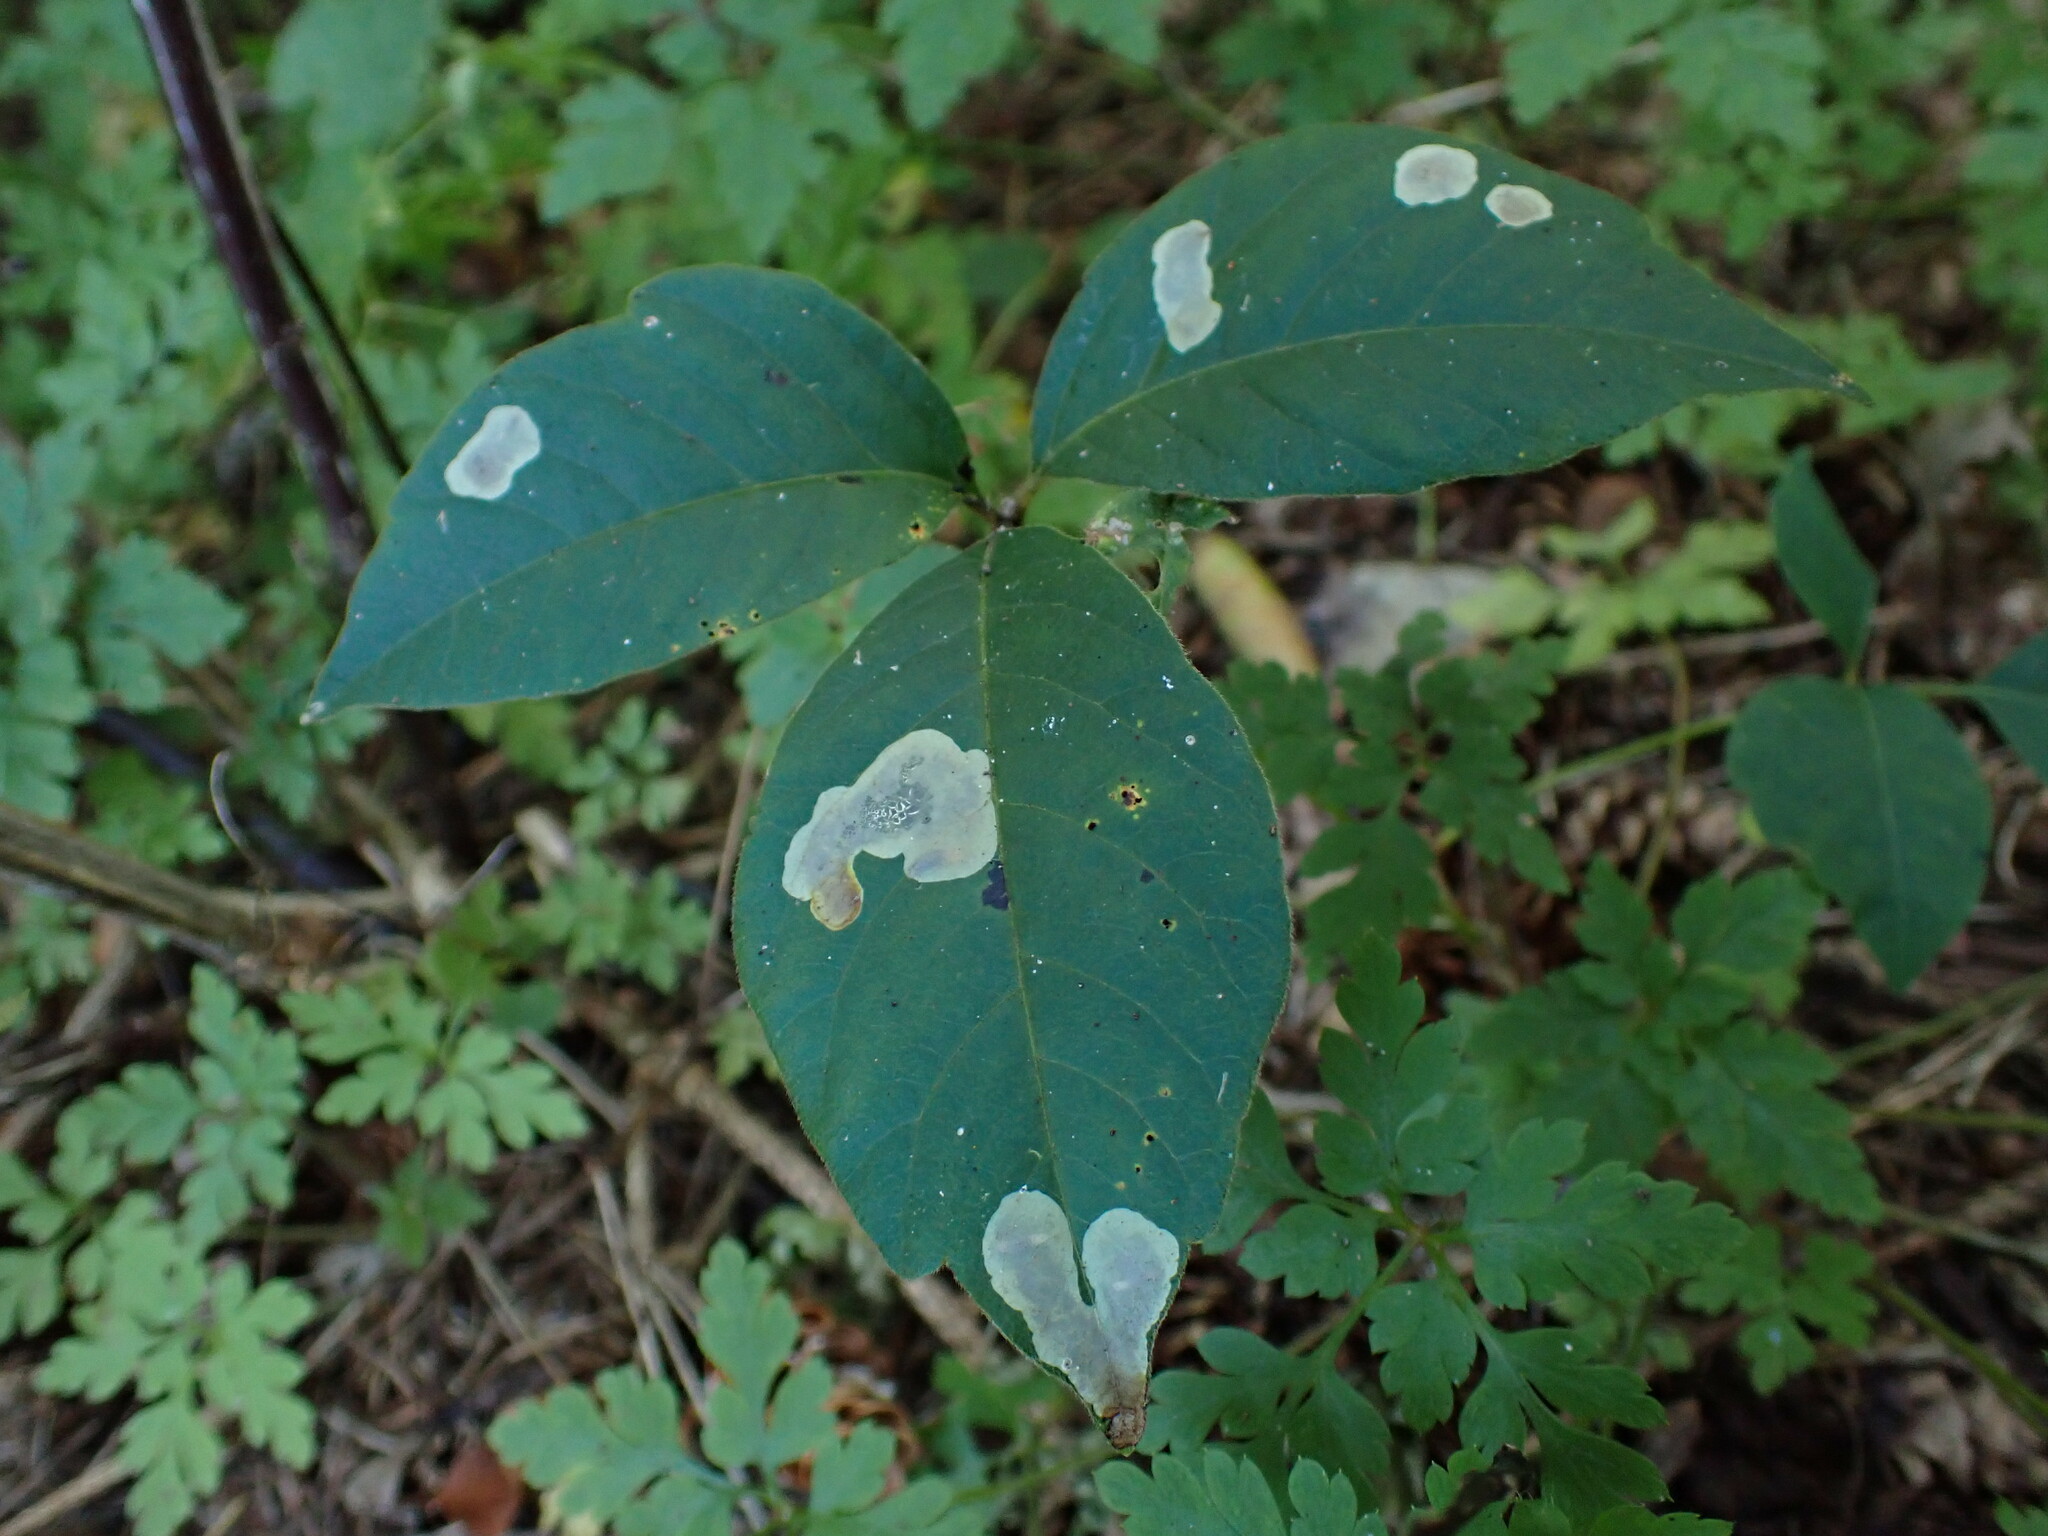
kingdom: Animalia
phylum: Arthropoda
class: Insecta
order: Lepidoptera
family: Gracillariidae
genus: Cameraria
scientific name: Cameraria guttifinitella
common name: Poison ivy leaf-miner moth
